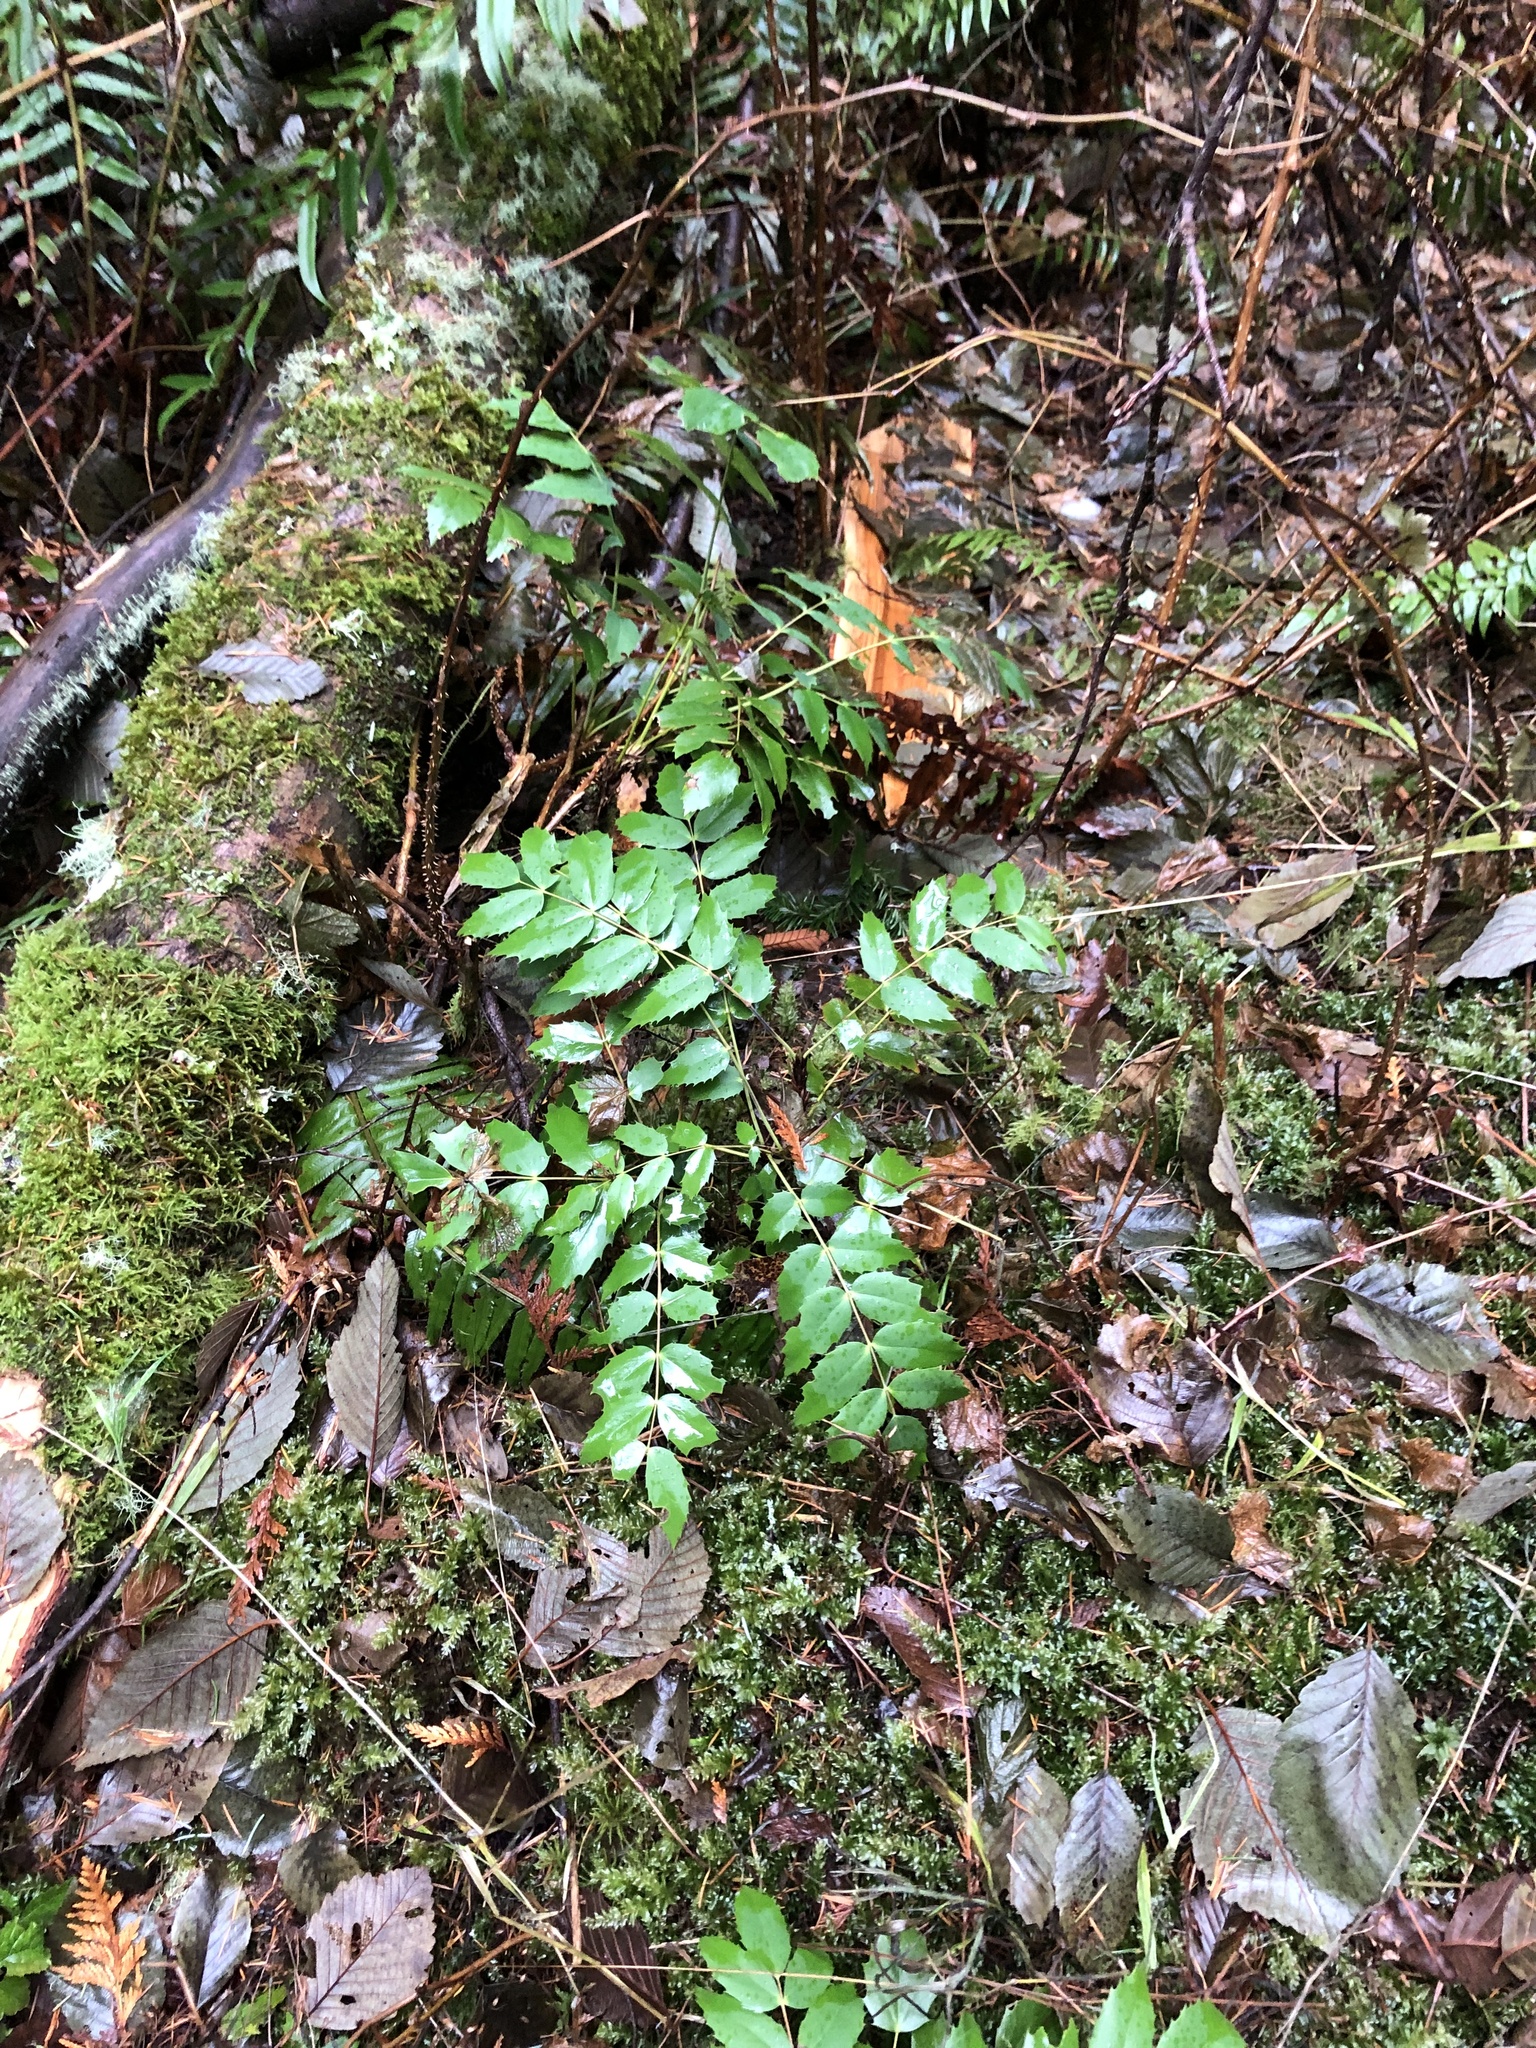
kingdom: Plantae
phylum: Tracheophyta
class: Magnoliopsida
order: Ranunculales
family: Berberidaceae
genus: Mahonia
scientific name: Mahonia nervosa
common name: Cascade oregon-grape
